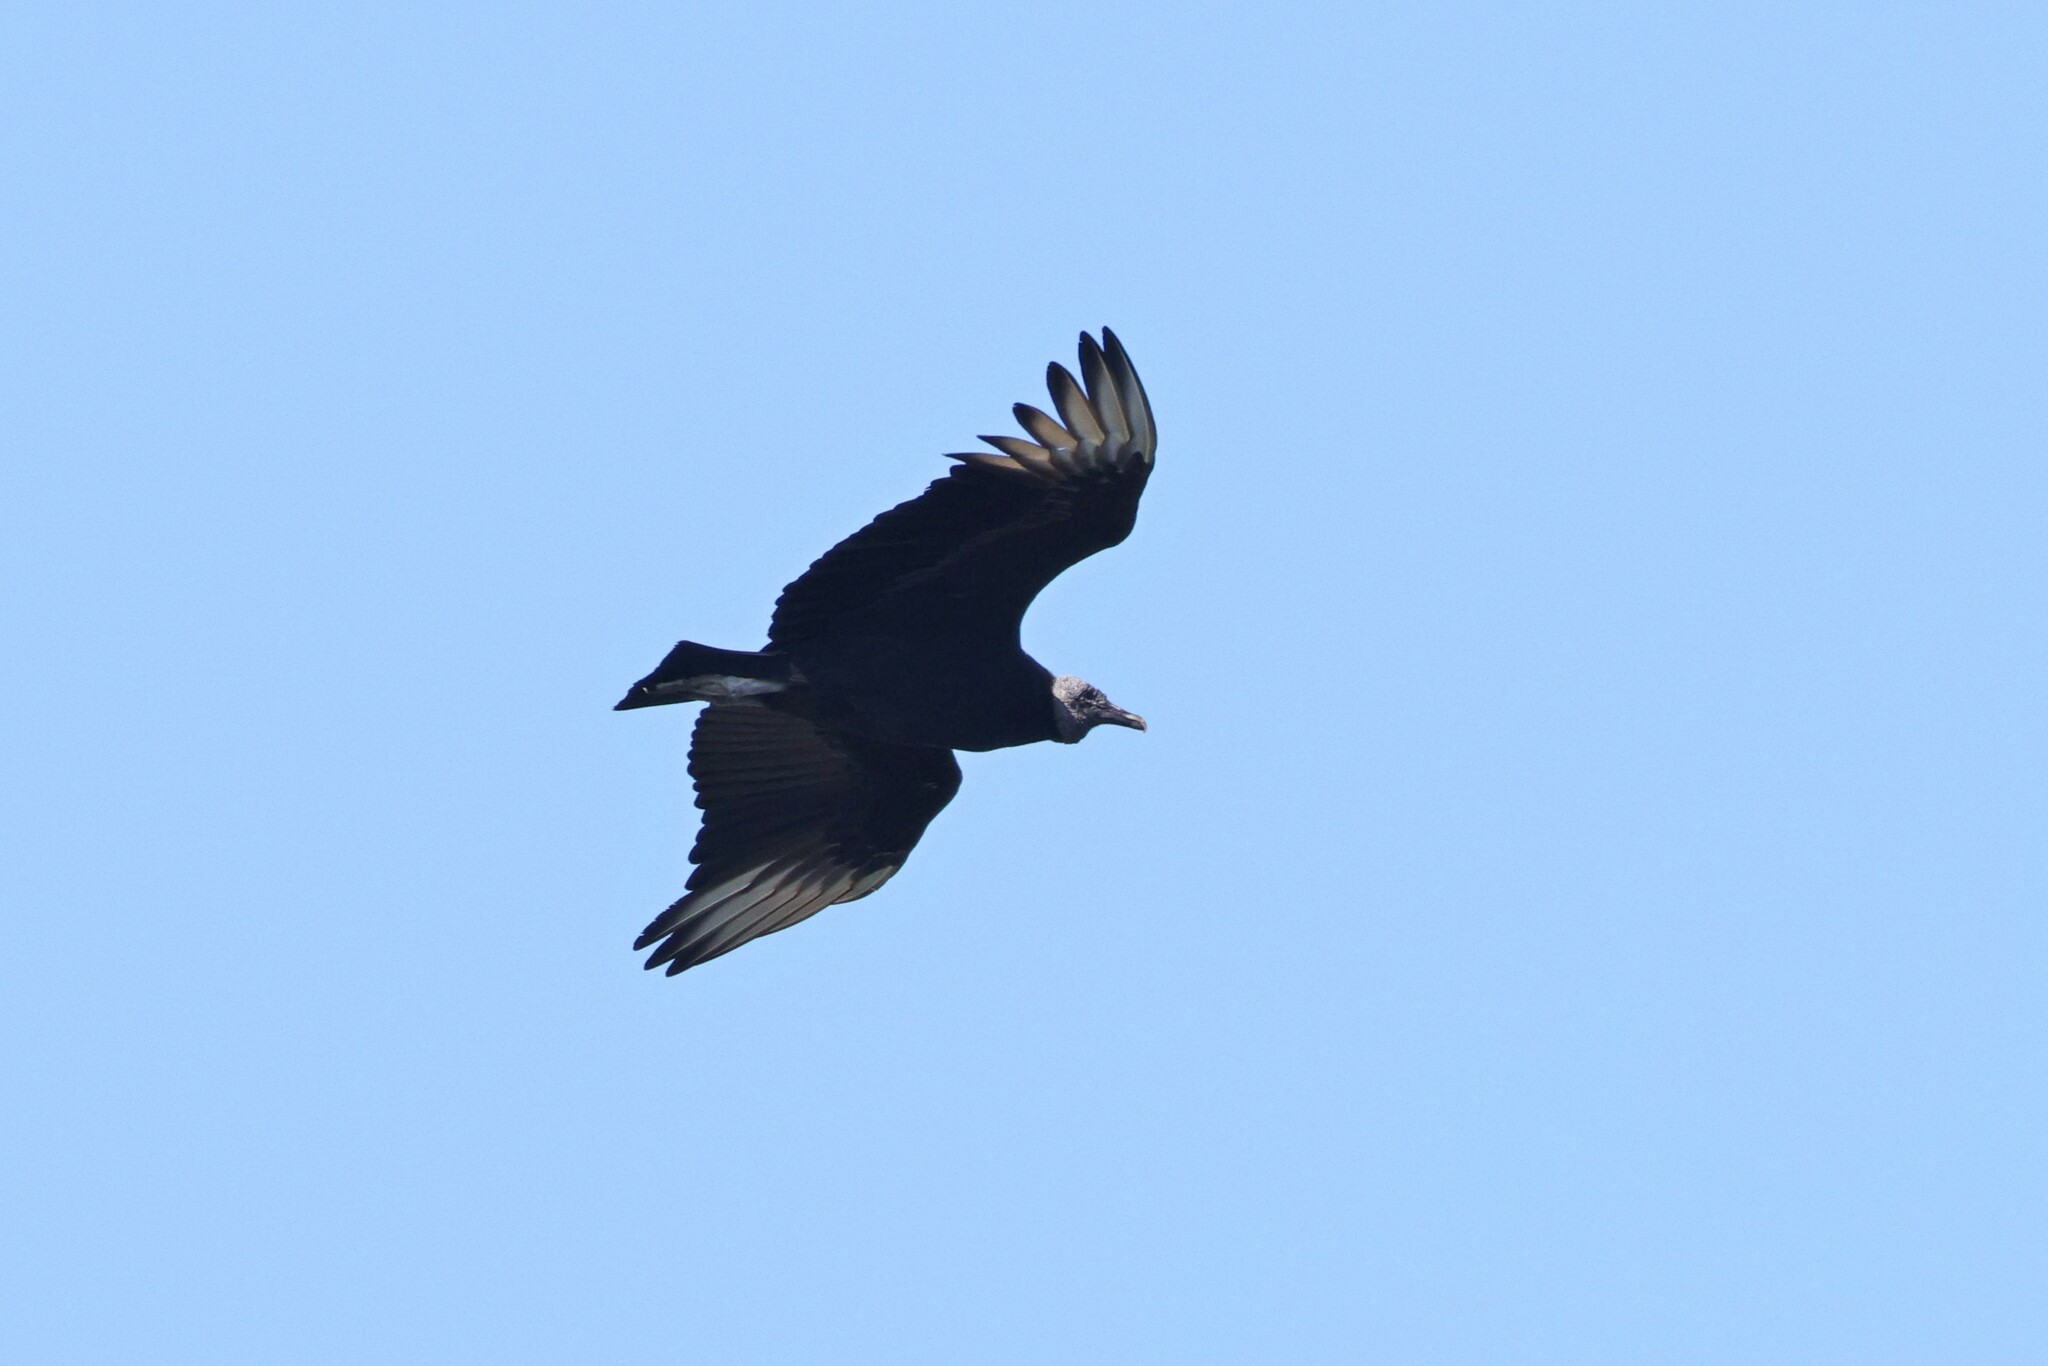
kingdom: Animalia
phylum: Chordata
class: Aves
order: Accipitriformes
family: Cathartidae
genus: Coragyps
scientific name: Coragyps atratus
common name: Black vulture
